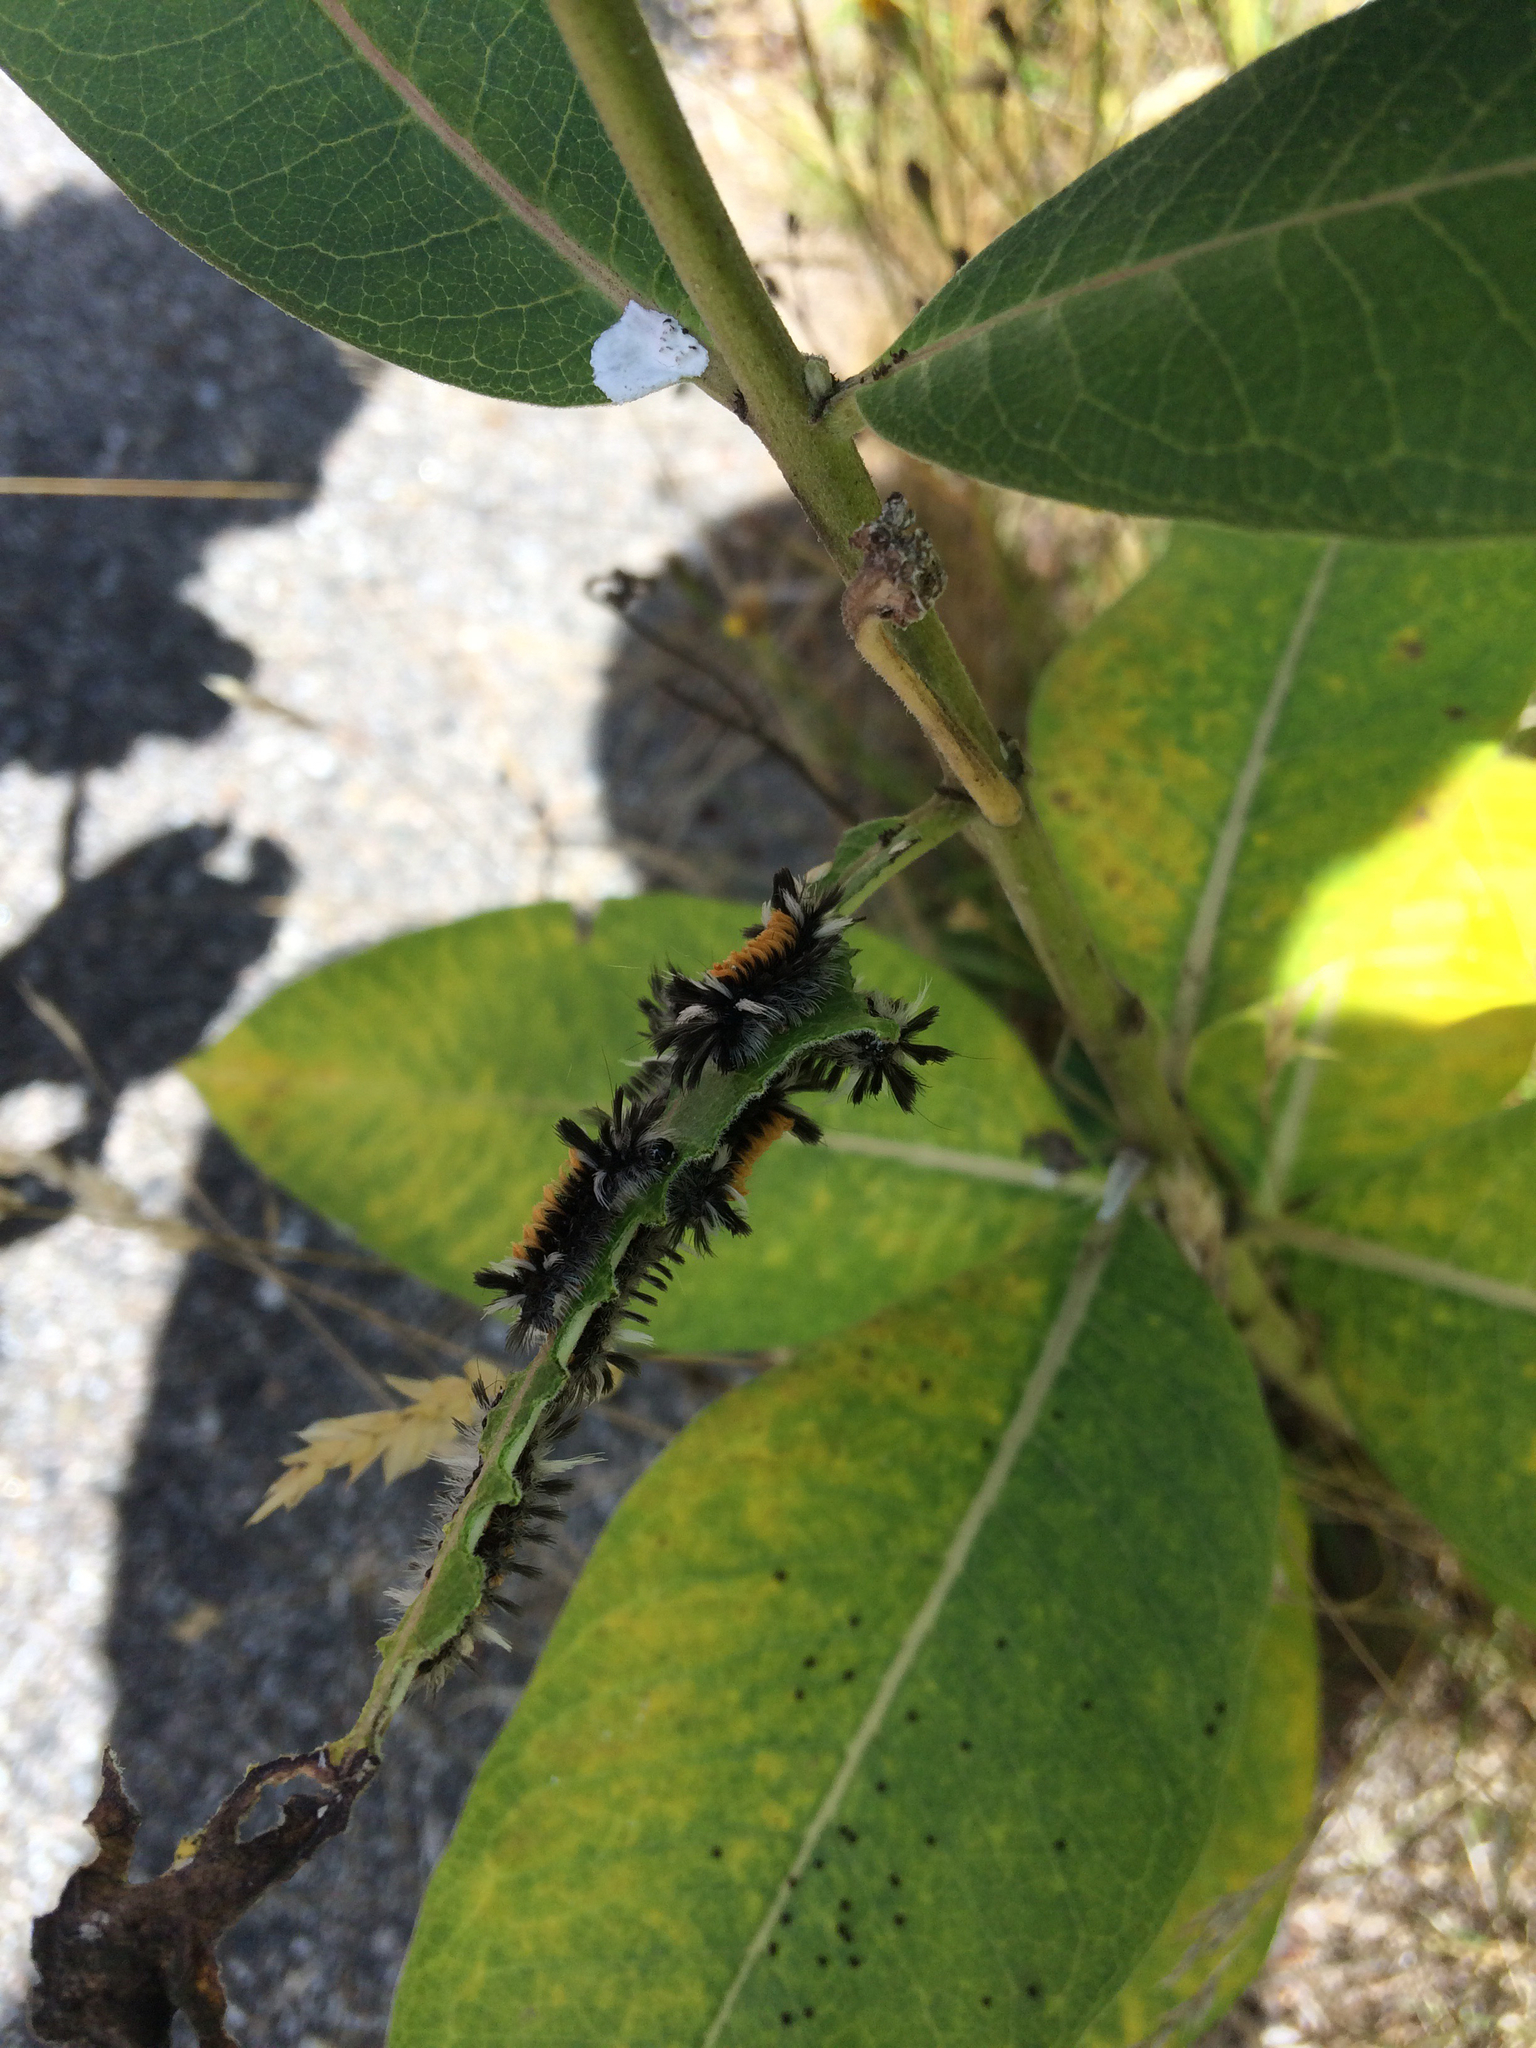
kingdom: Animalia
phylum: Arthropoda
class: Insecta
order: Lepidoptera
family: Erebidae
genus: Euchaetes
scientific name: Euchaetes egle
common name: Milkweed tussock moth
